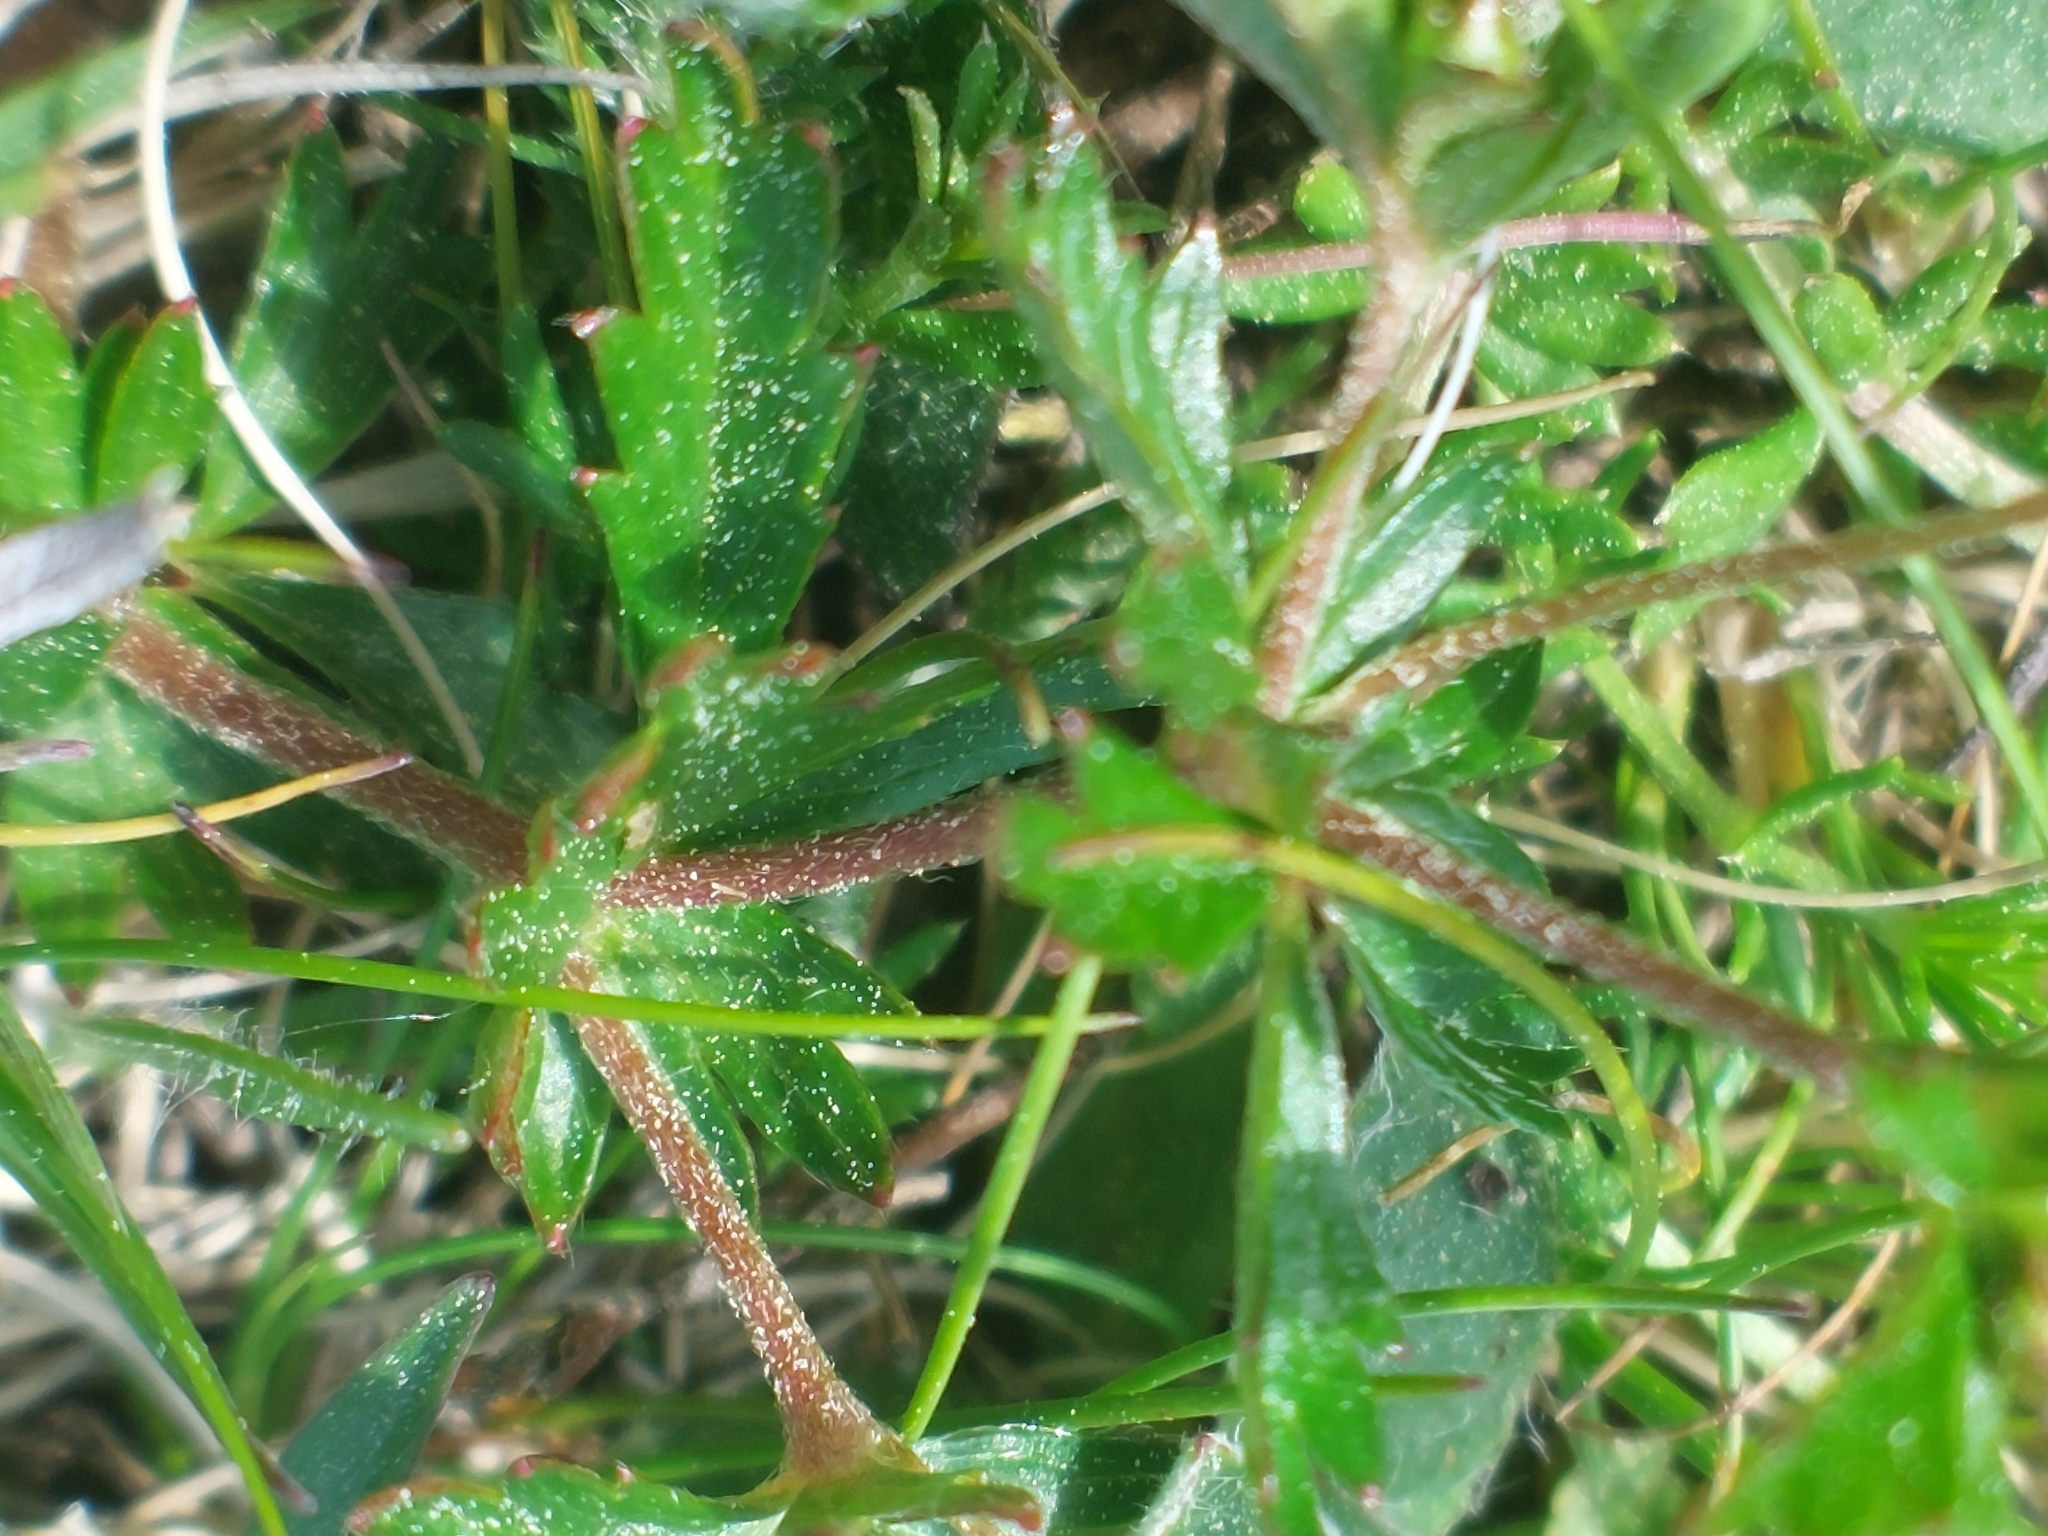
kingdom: Plantae
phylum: Tracheophyta
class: Magnoliopsida
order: Rosales
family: Rosaceae
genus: Potentilla
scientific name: Potentilla erecta
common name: Tormentil
